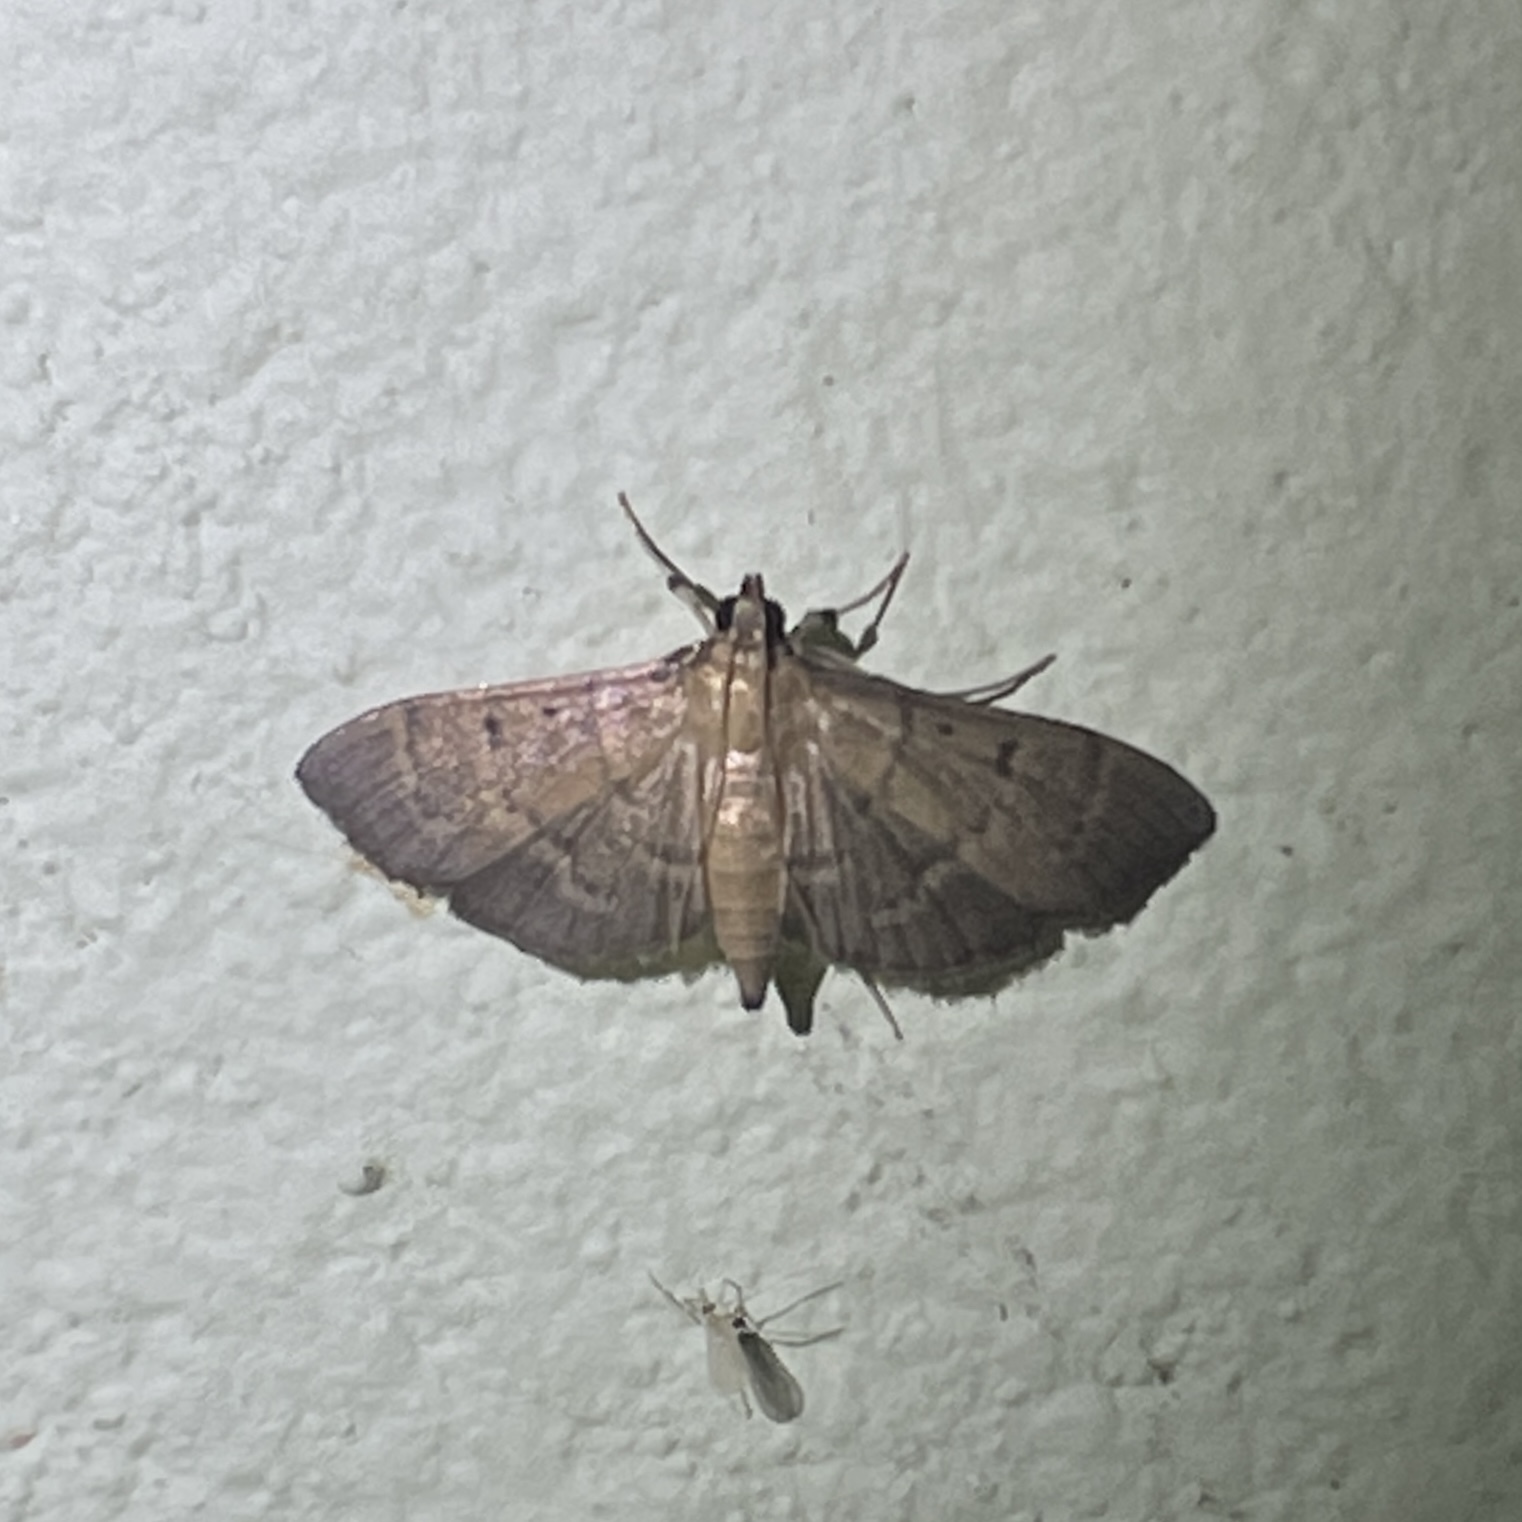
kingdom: Animalia
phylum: Arthropoda
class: Insecta
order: Lepidoptera
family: Crambidae
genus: Herpetogramma
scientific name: Herpetogramma semilaniata
